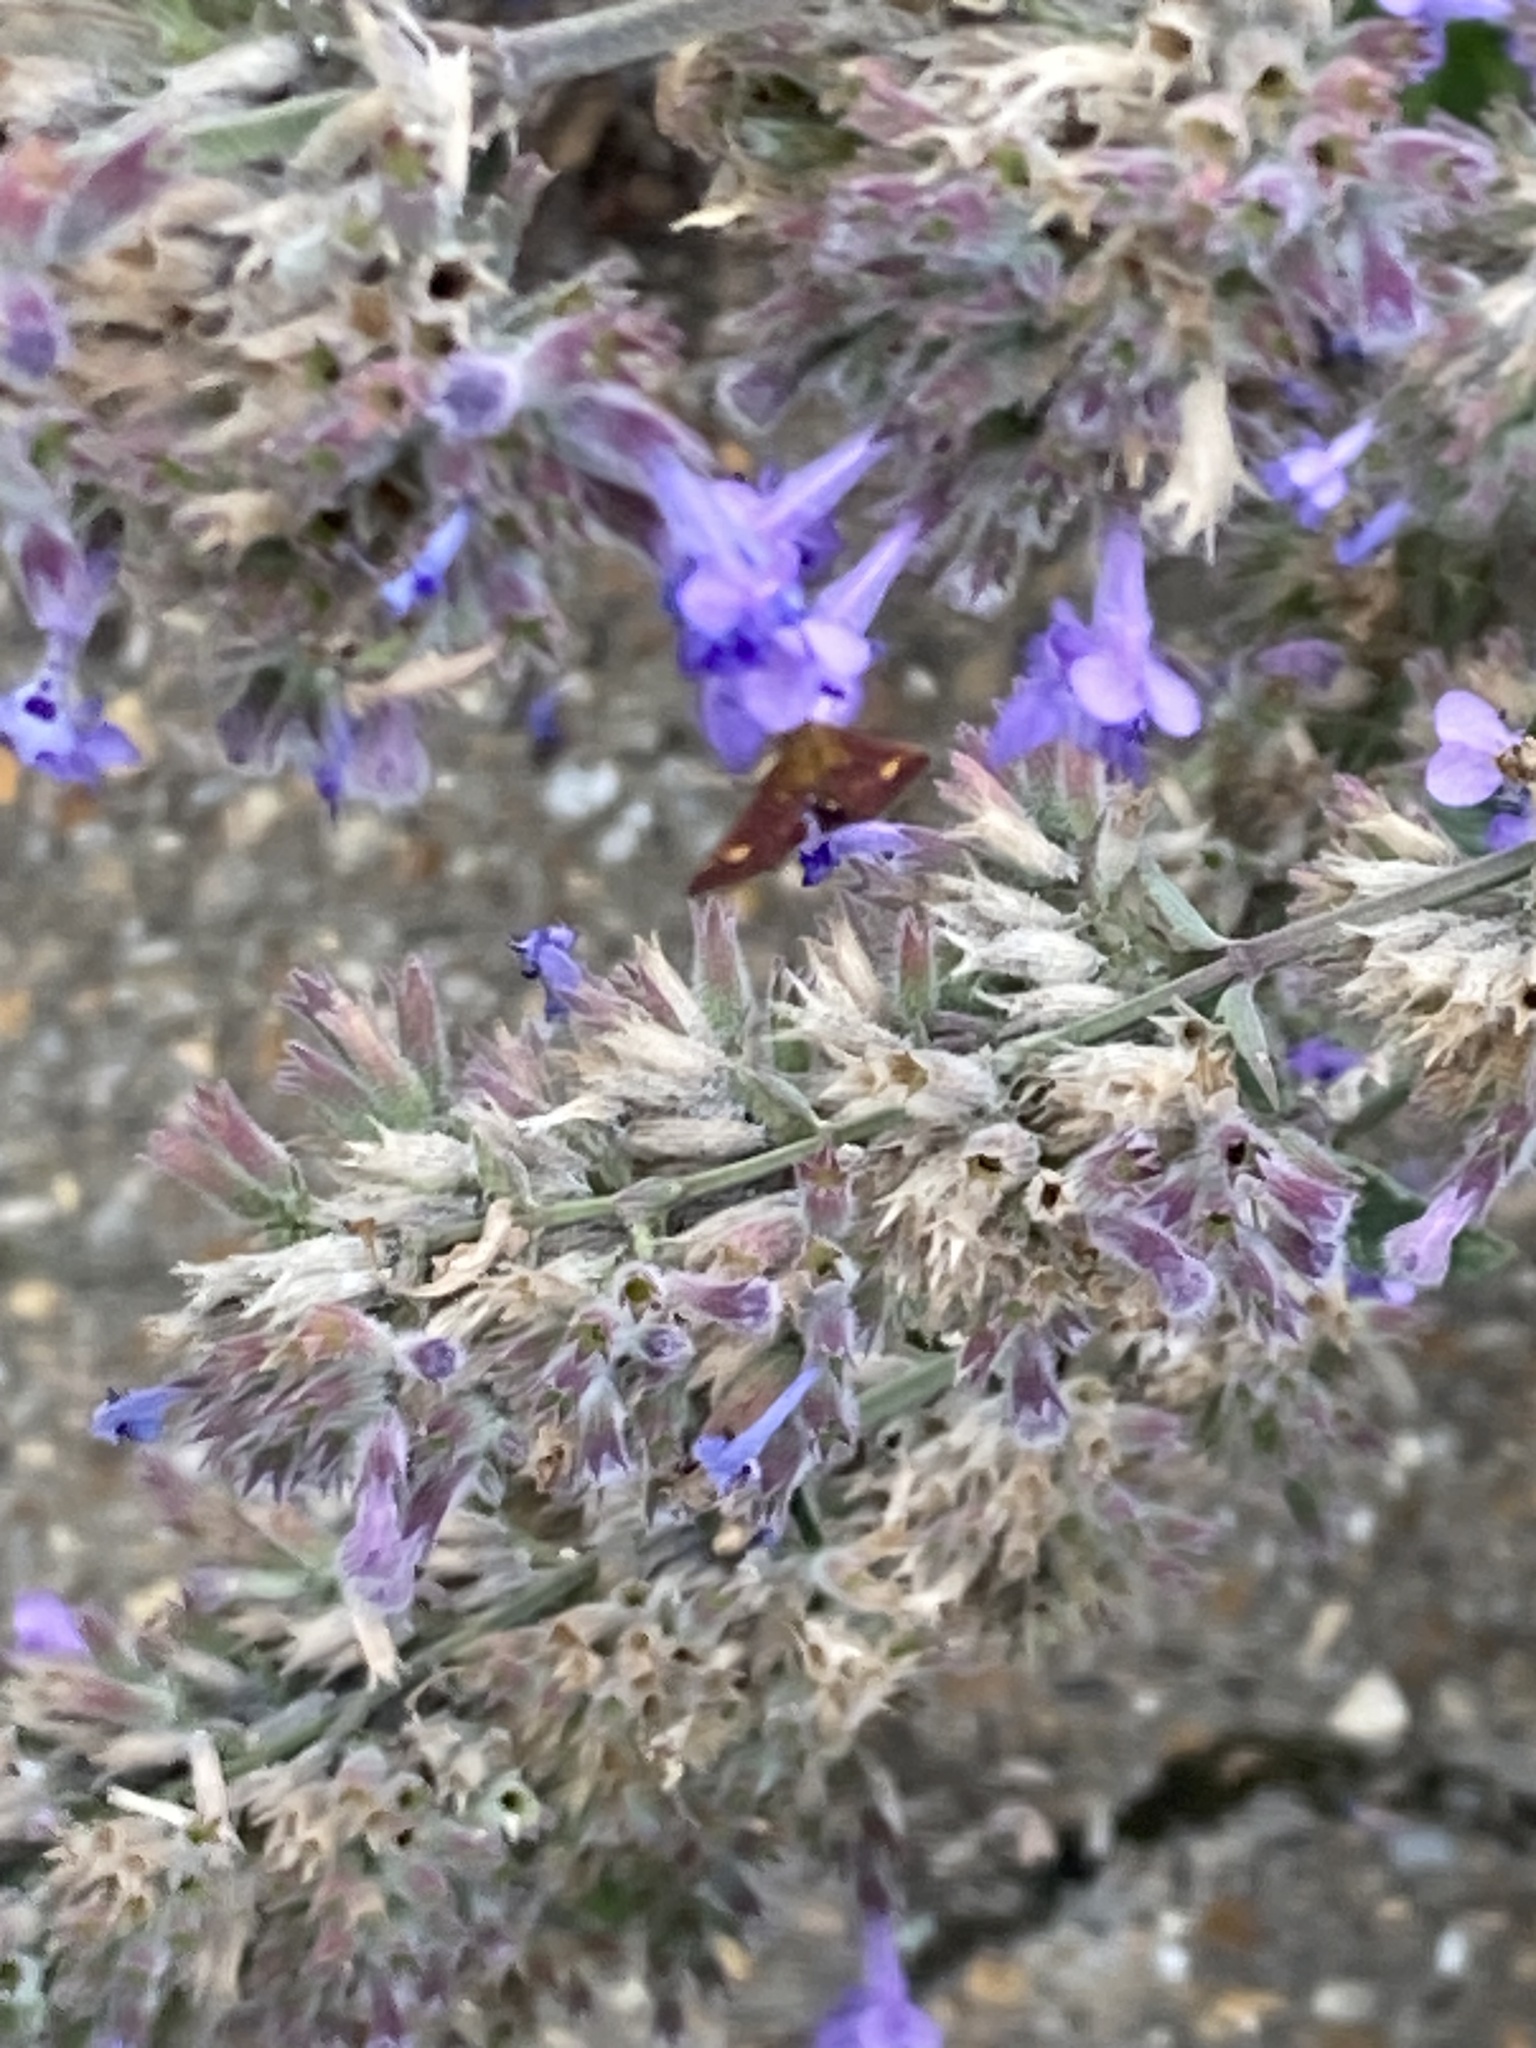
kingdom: Animalia
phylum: Arthropoda
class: Insecta
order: Lepidoptera
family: Crambidae
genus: Pyrausta
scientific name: Pyrausta aurata
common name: Small purple & gold
